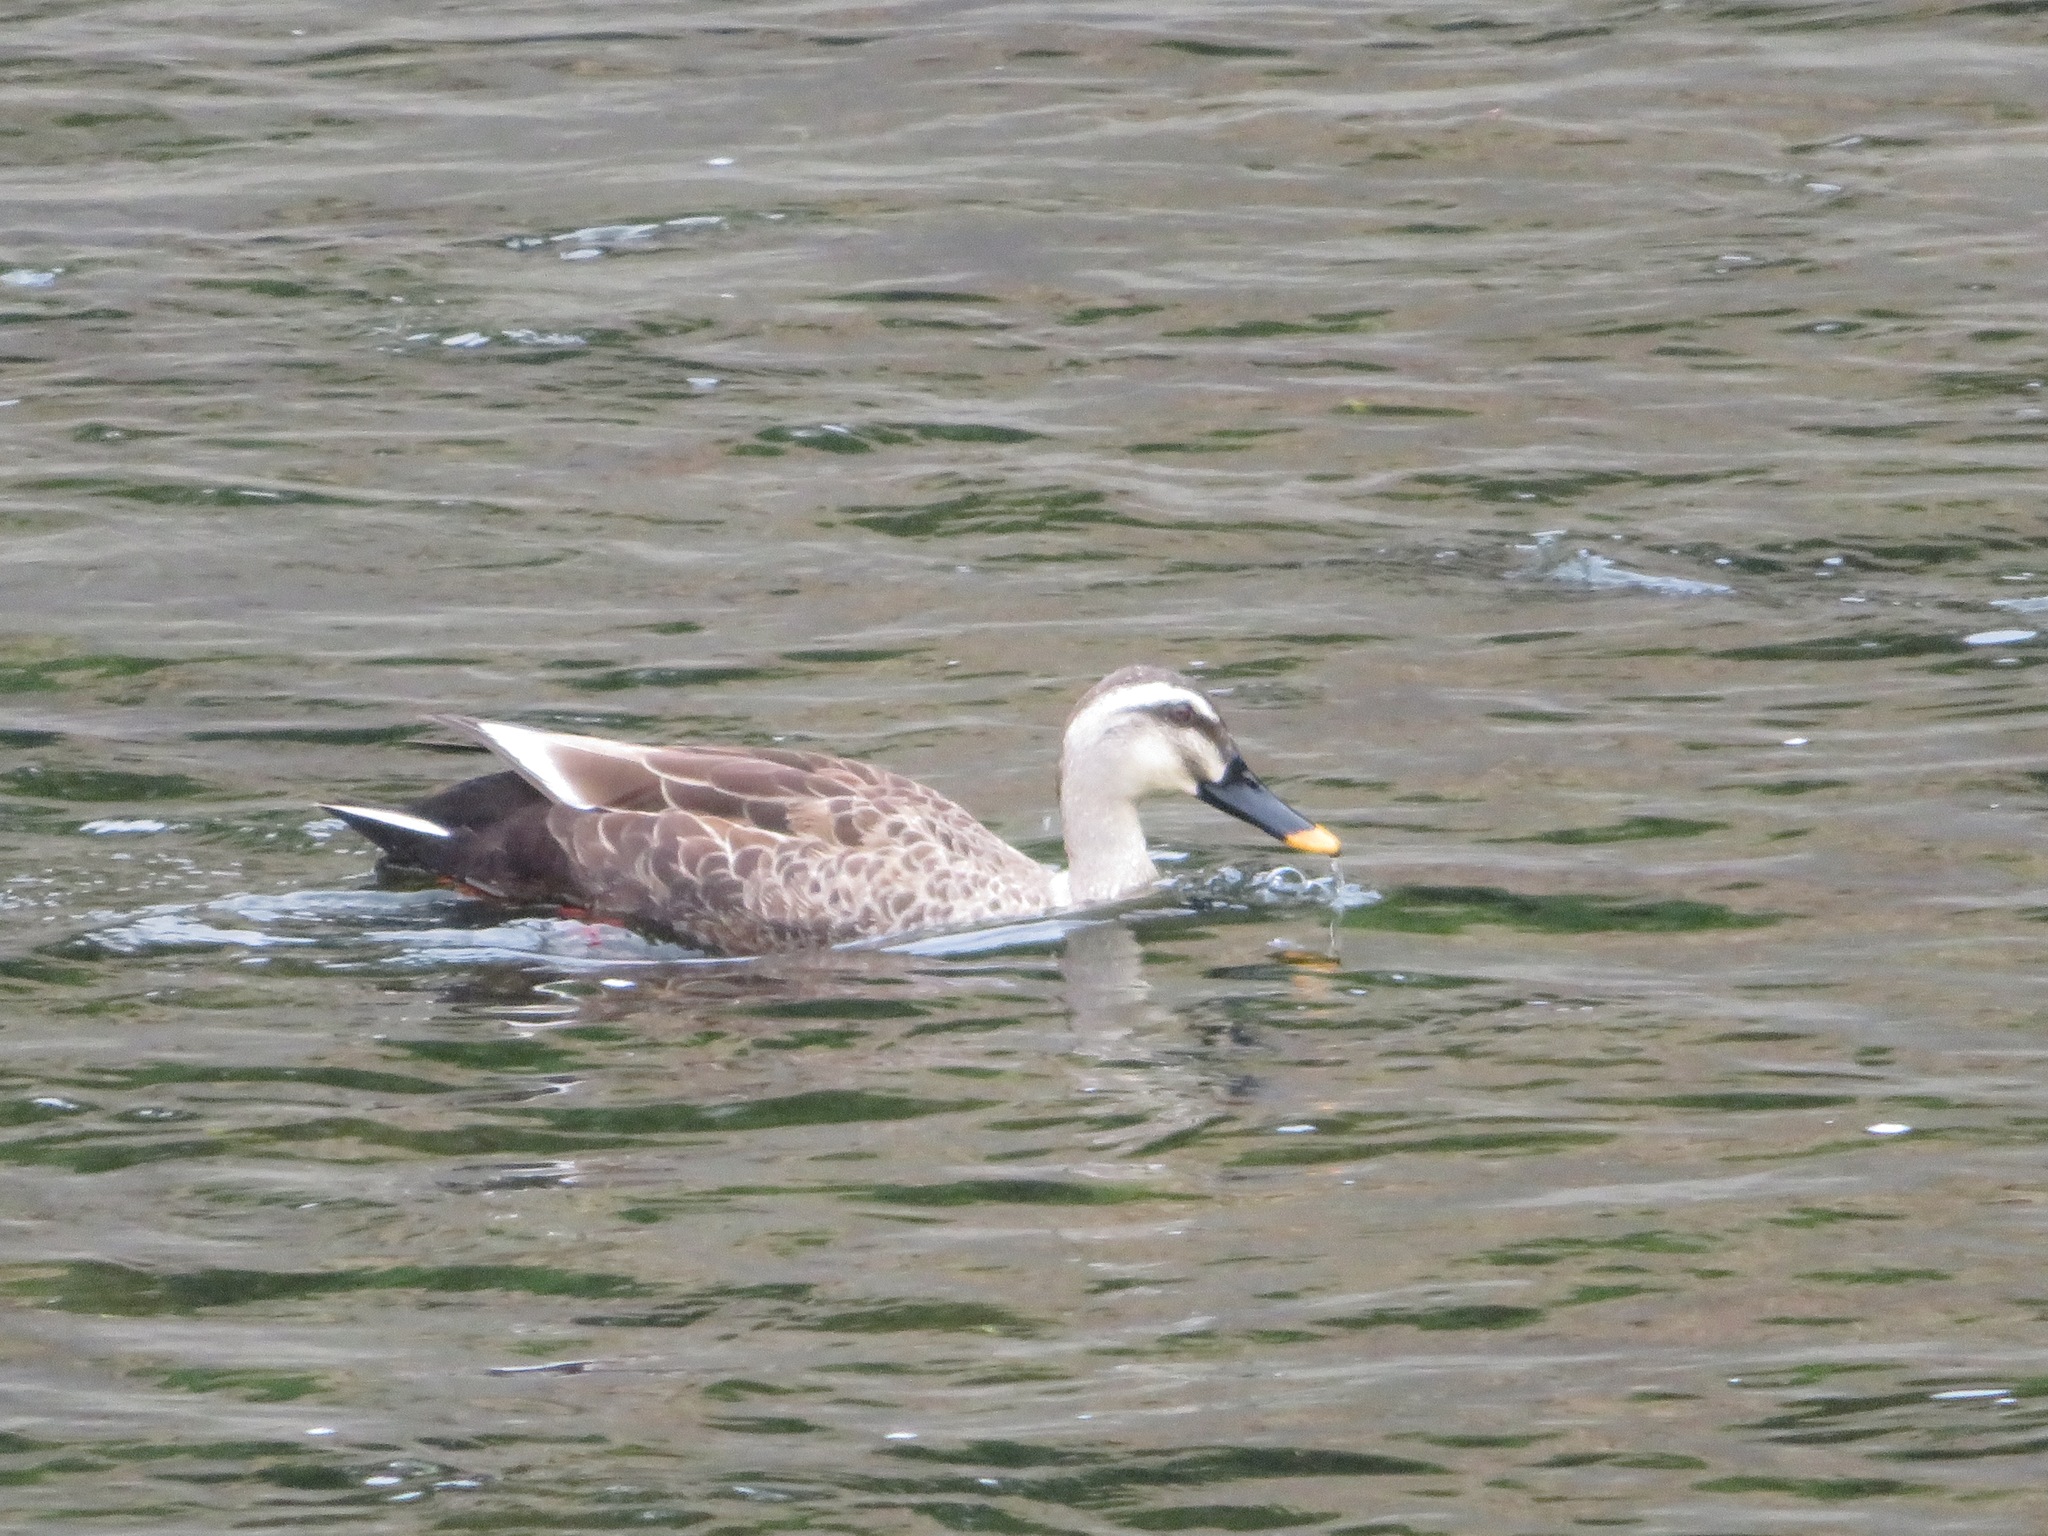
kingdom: Animalia
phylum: Chordata
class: Aves
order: Anseriformes
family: Anatidae
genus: Anas
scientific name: Anas zonorhyncha
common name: Eastern spot-billed duck
